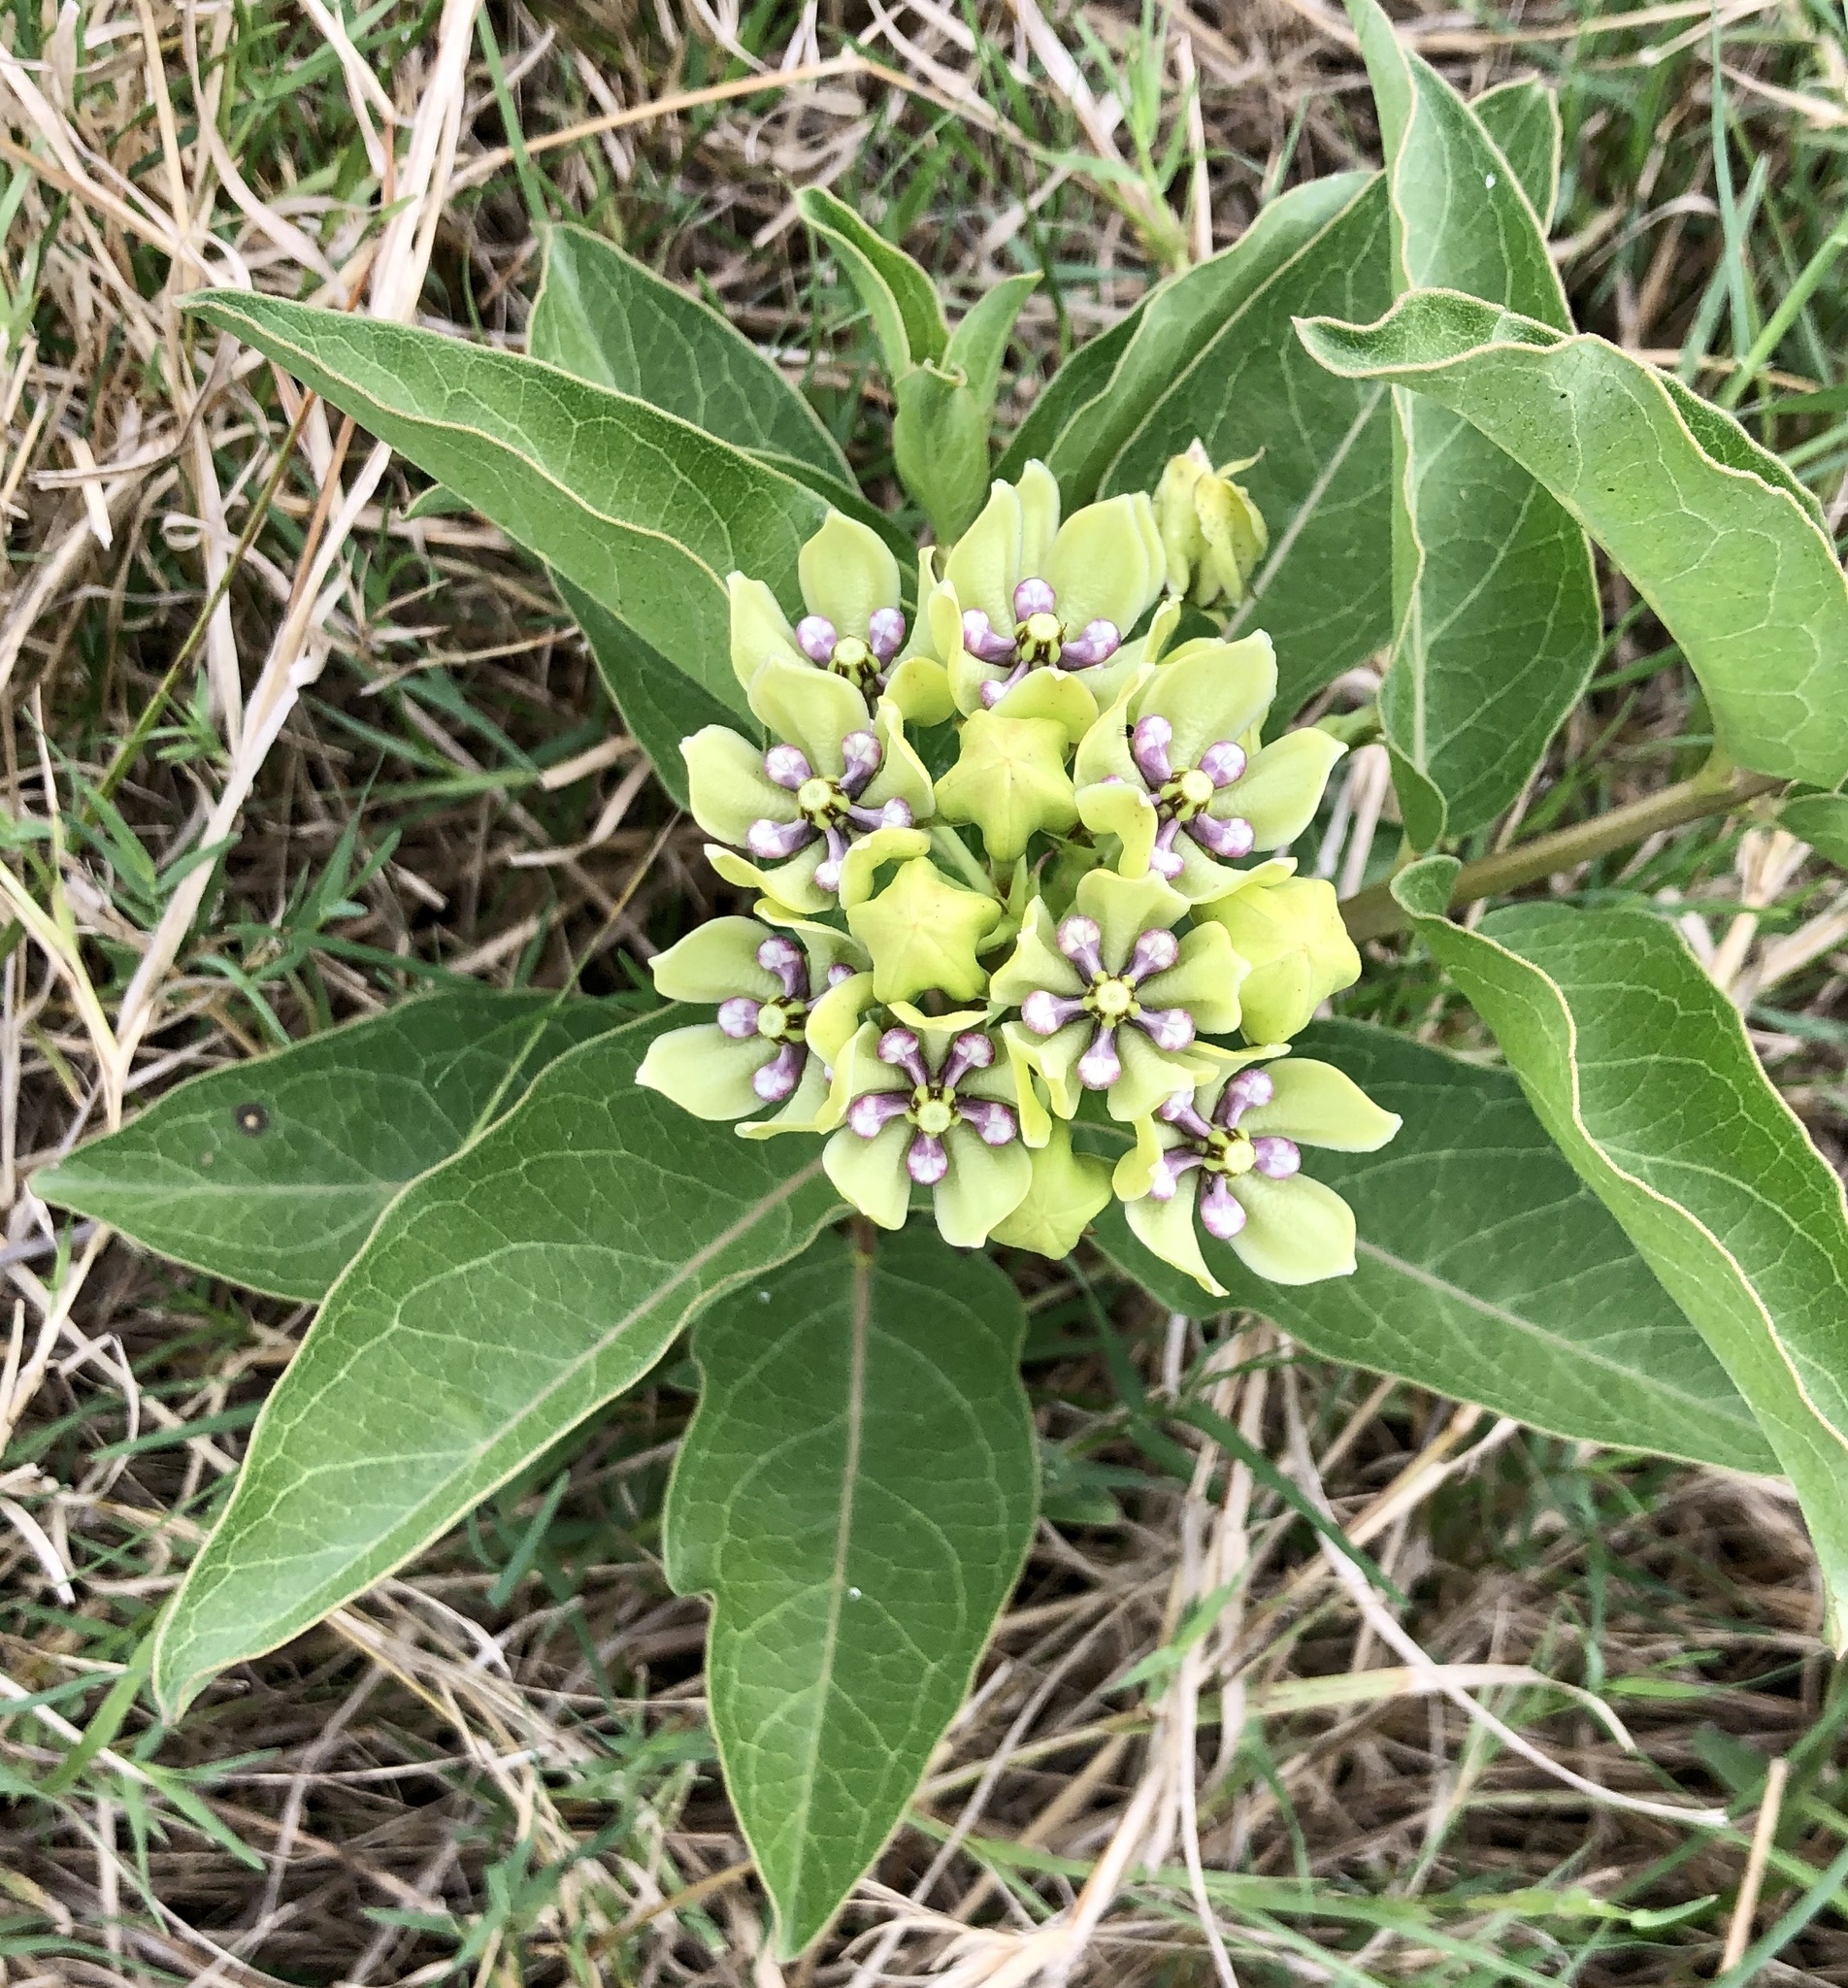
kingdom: Plantae
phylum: Tracheophyta
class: Magnoliopsida
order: Gentianales
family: Apocynaceae
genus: Asclepias
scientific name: Asclepias viridis
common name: Antelope-horns
